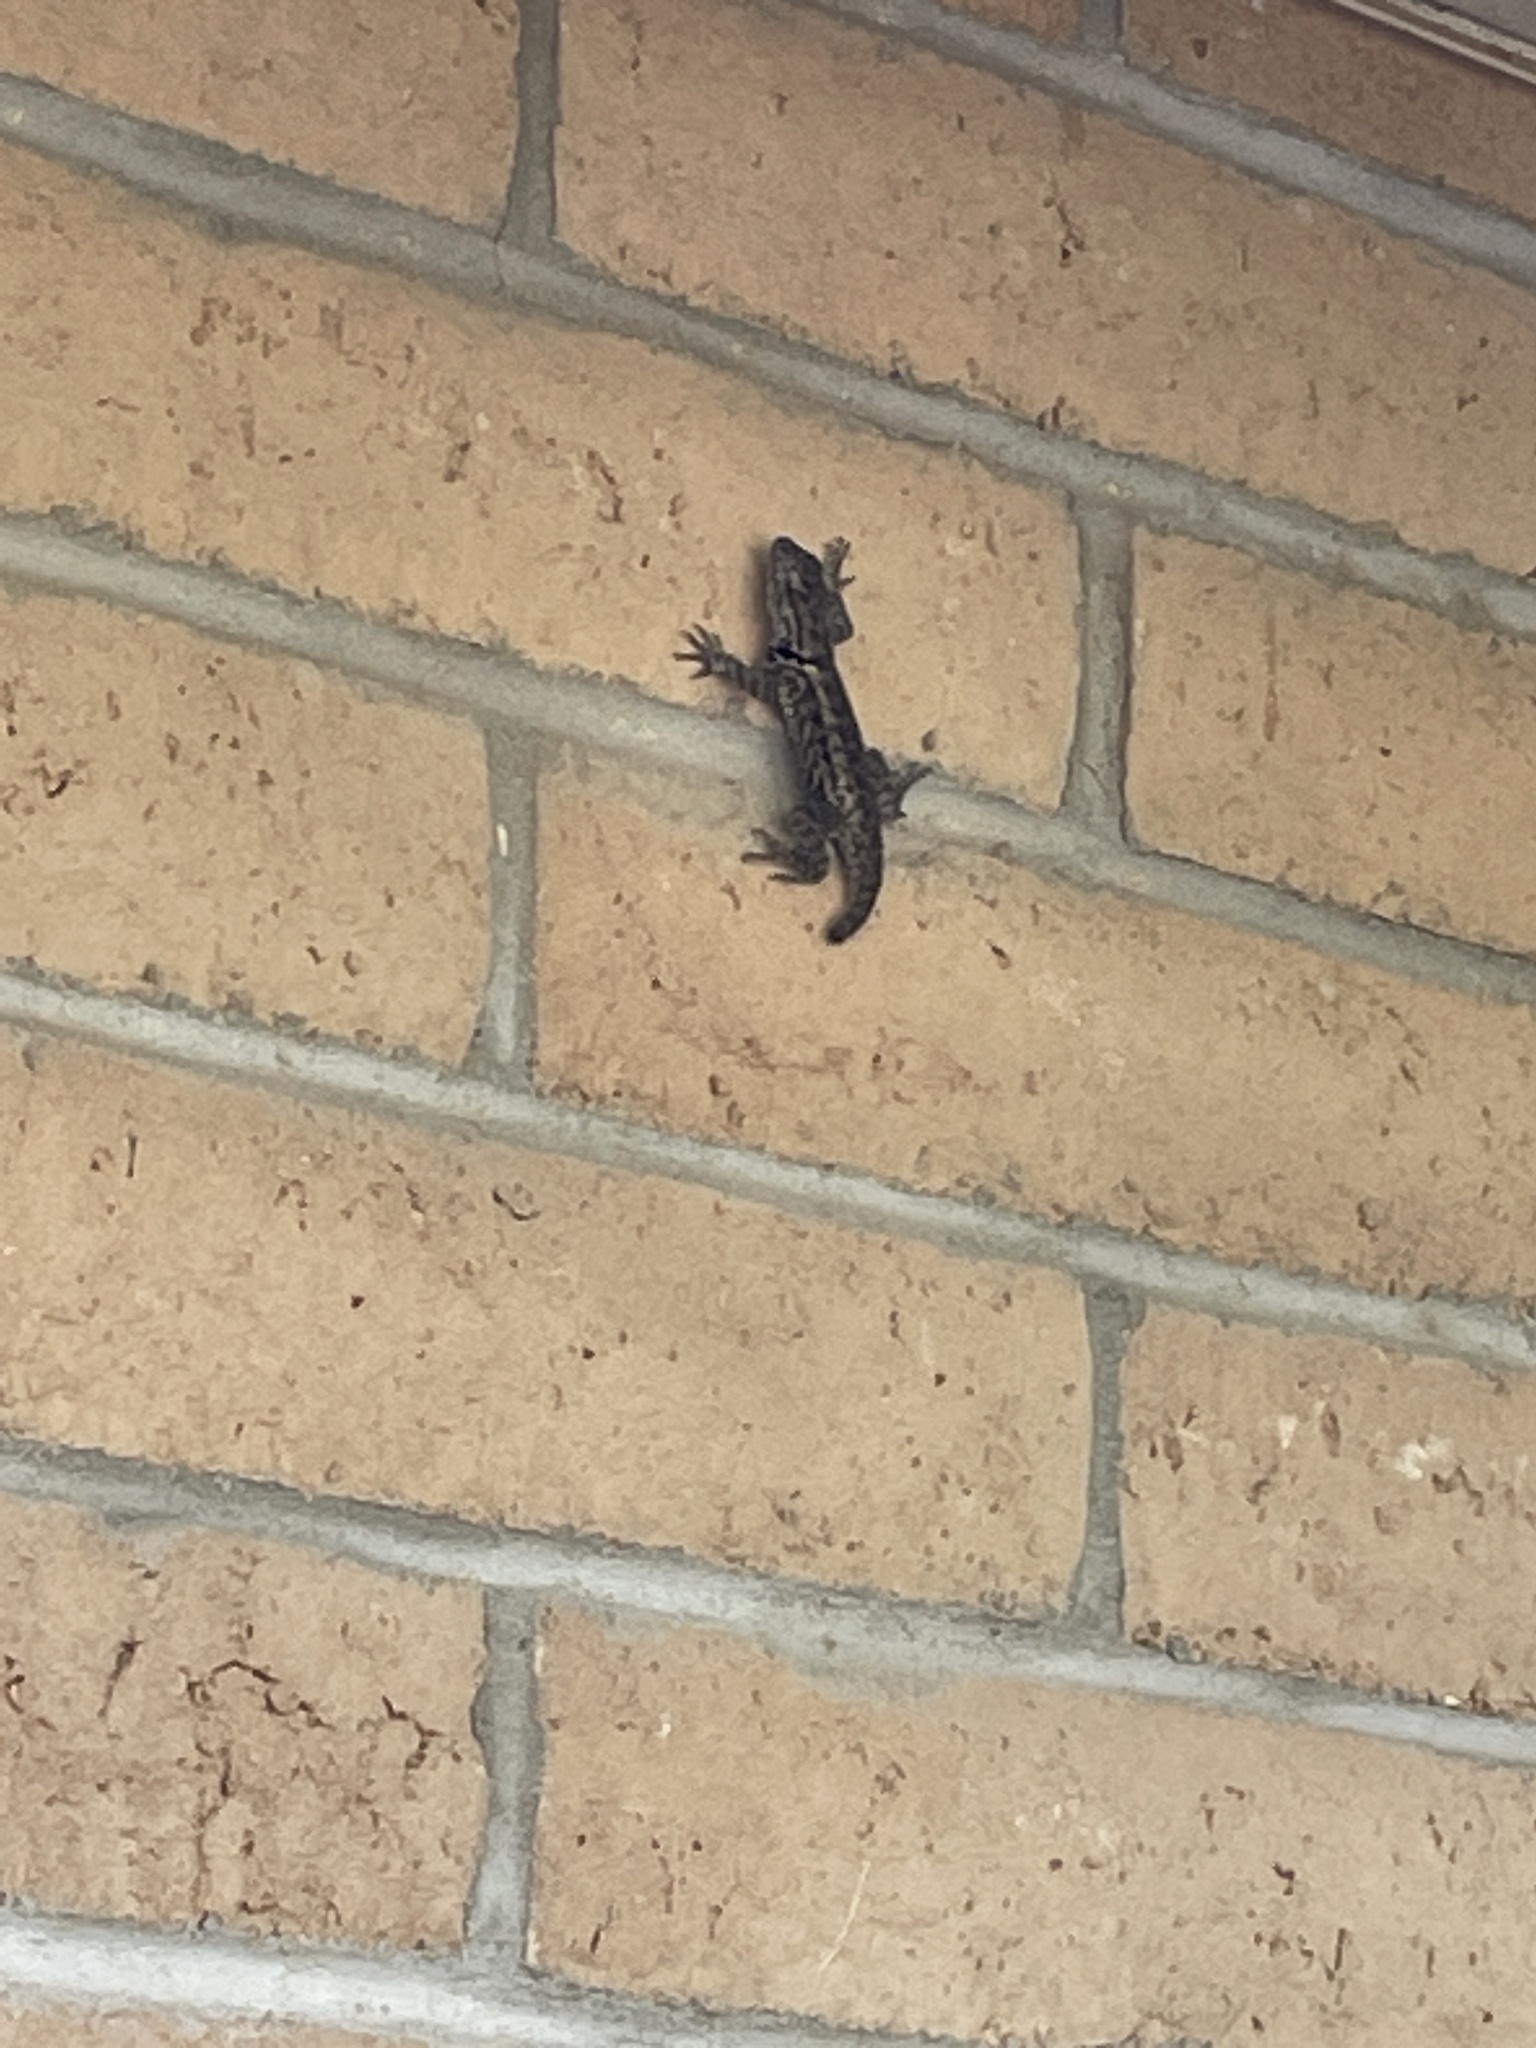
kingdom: Animalia
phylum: Chordata
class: Squamata
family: Phrynosomatidae
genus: Sceloporus
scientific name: Sceloporus magister
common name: Desert spiny lizard
